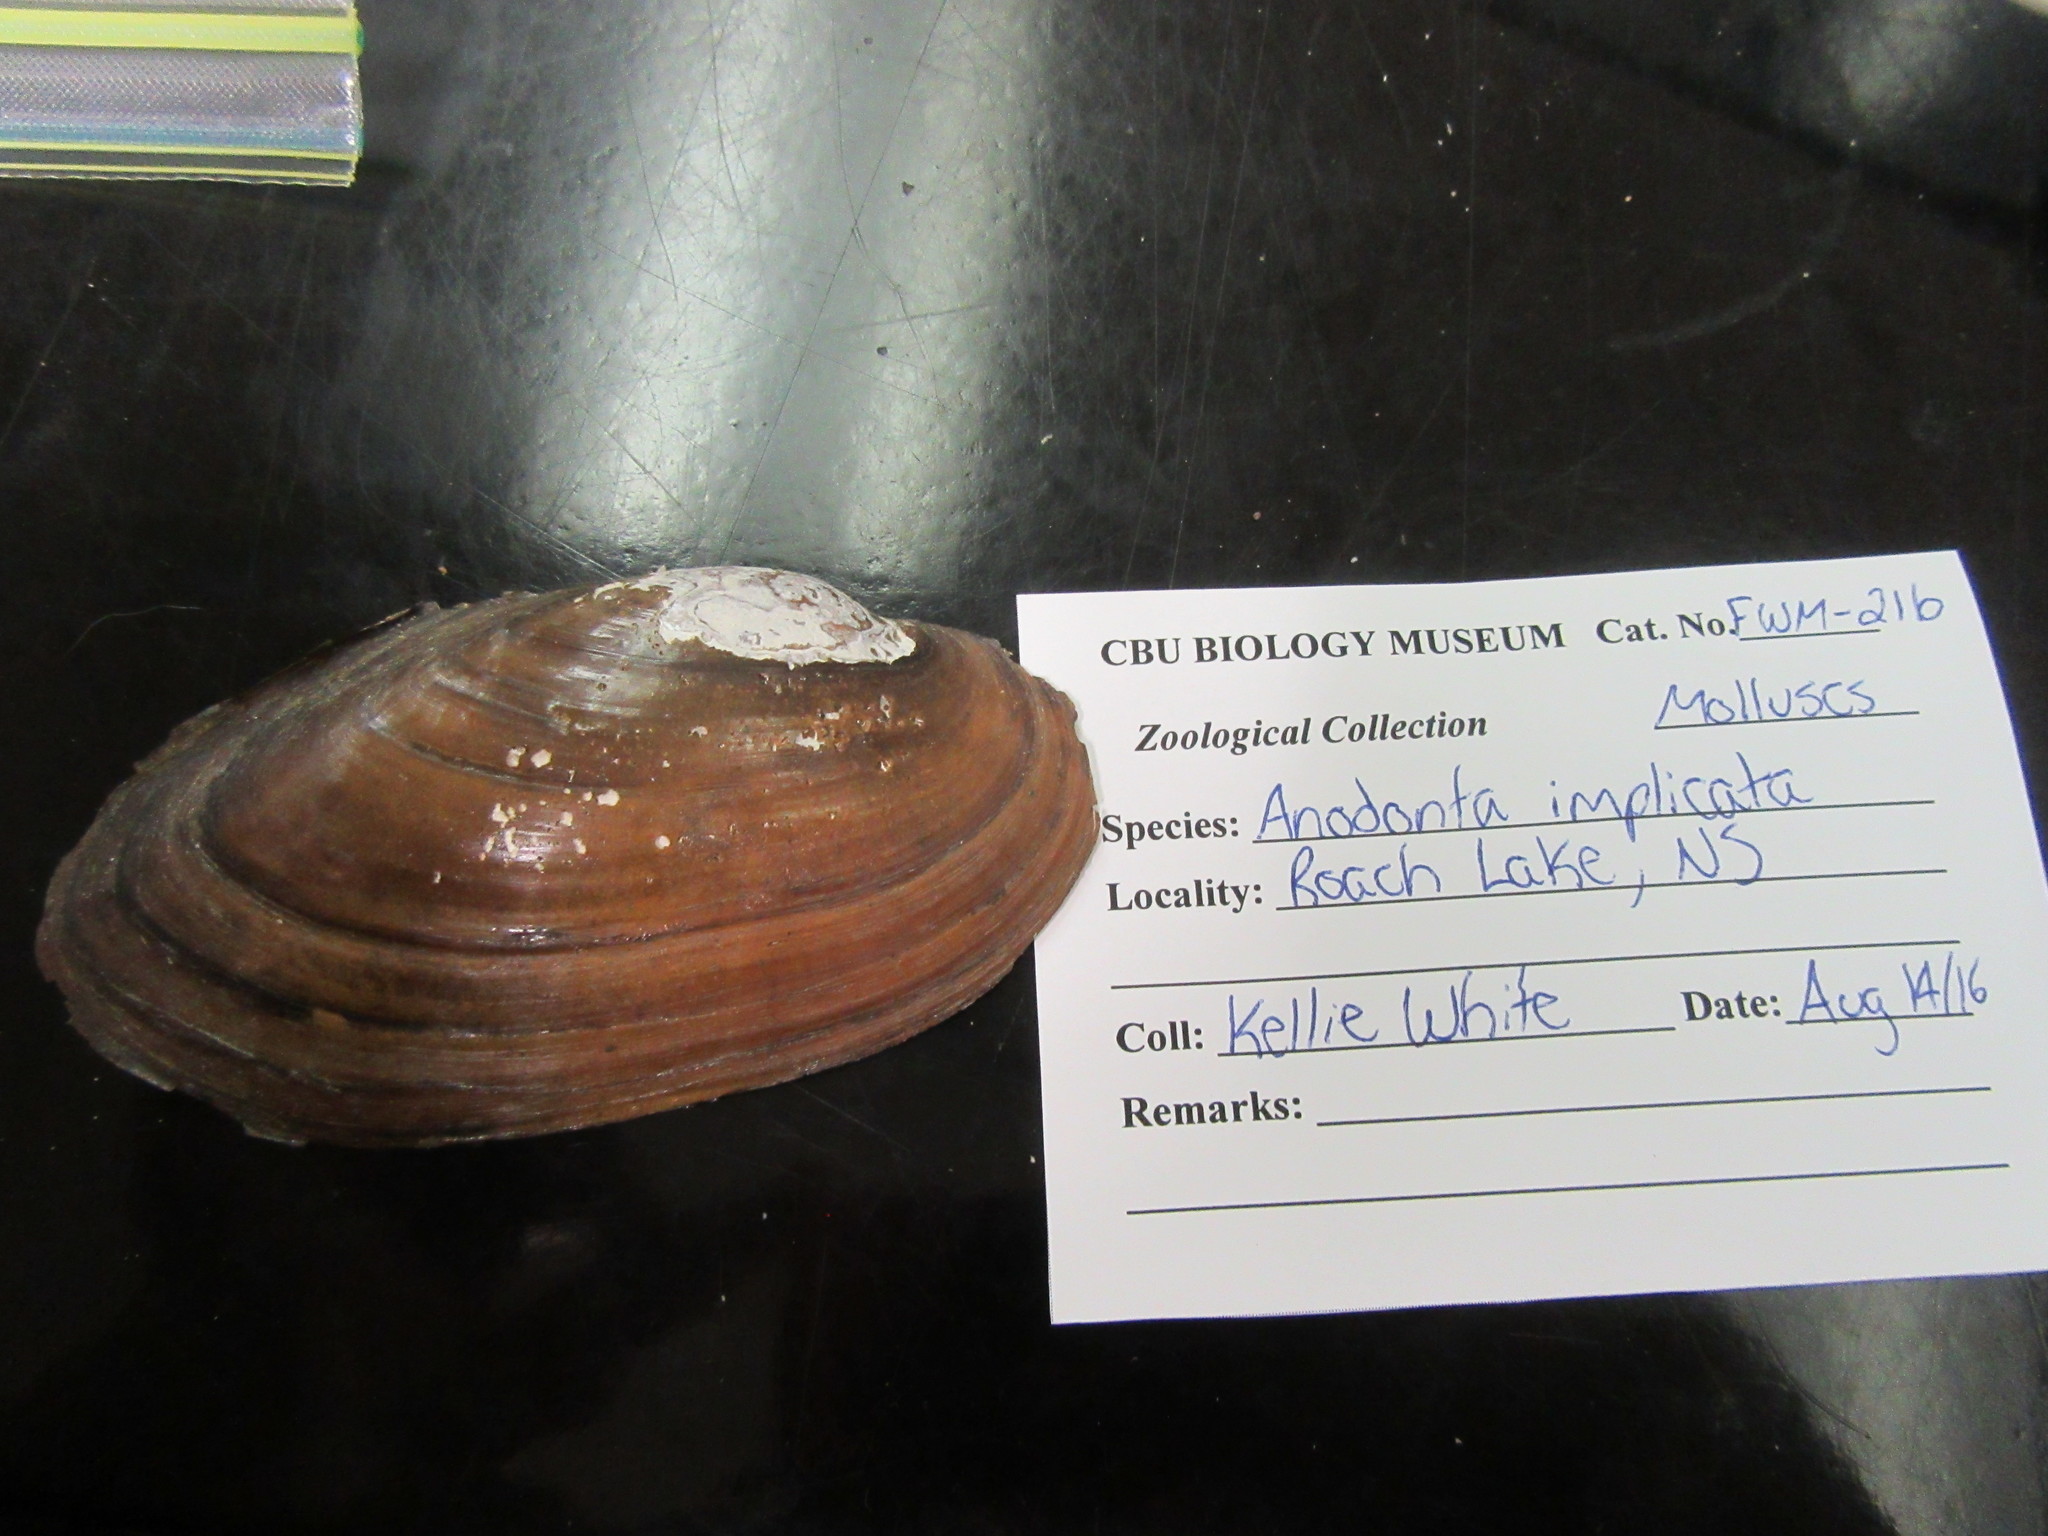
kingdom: Animalia
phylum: Mollusca
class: Bivalvia
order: Unionida
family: Unionidae
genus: Utterbackiana
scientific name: Utterbackiana implicata
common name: Alewife floater
